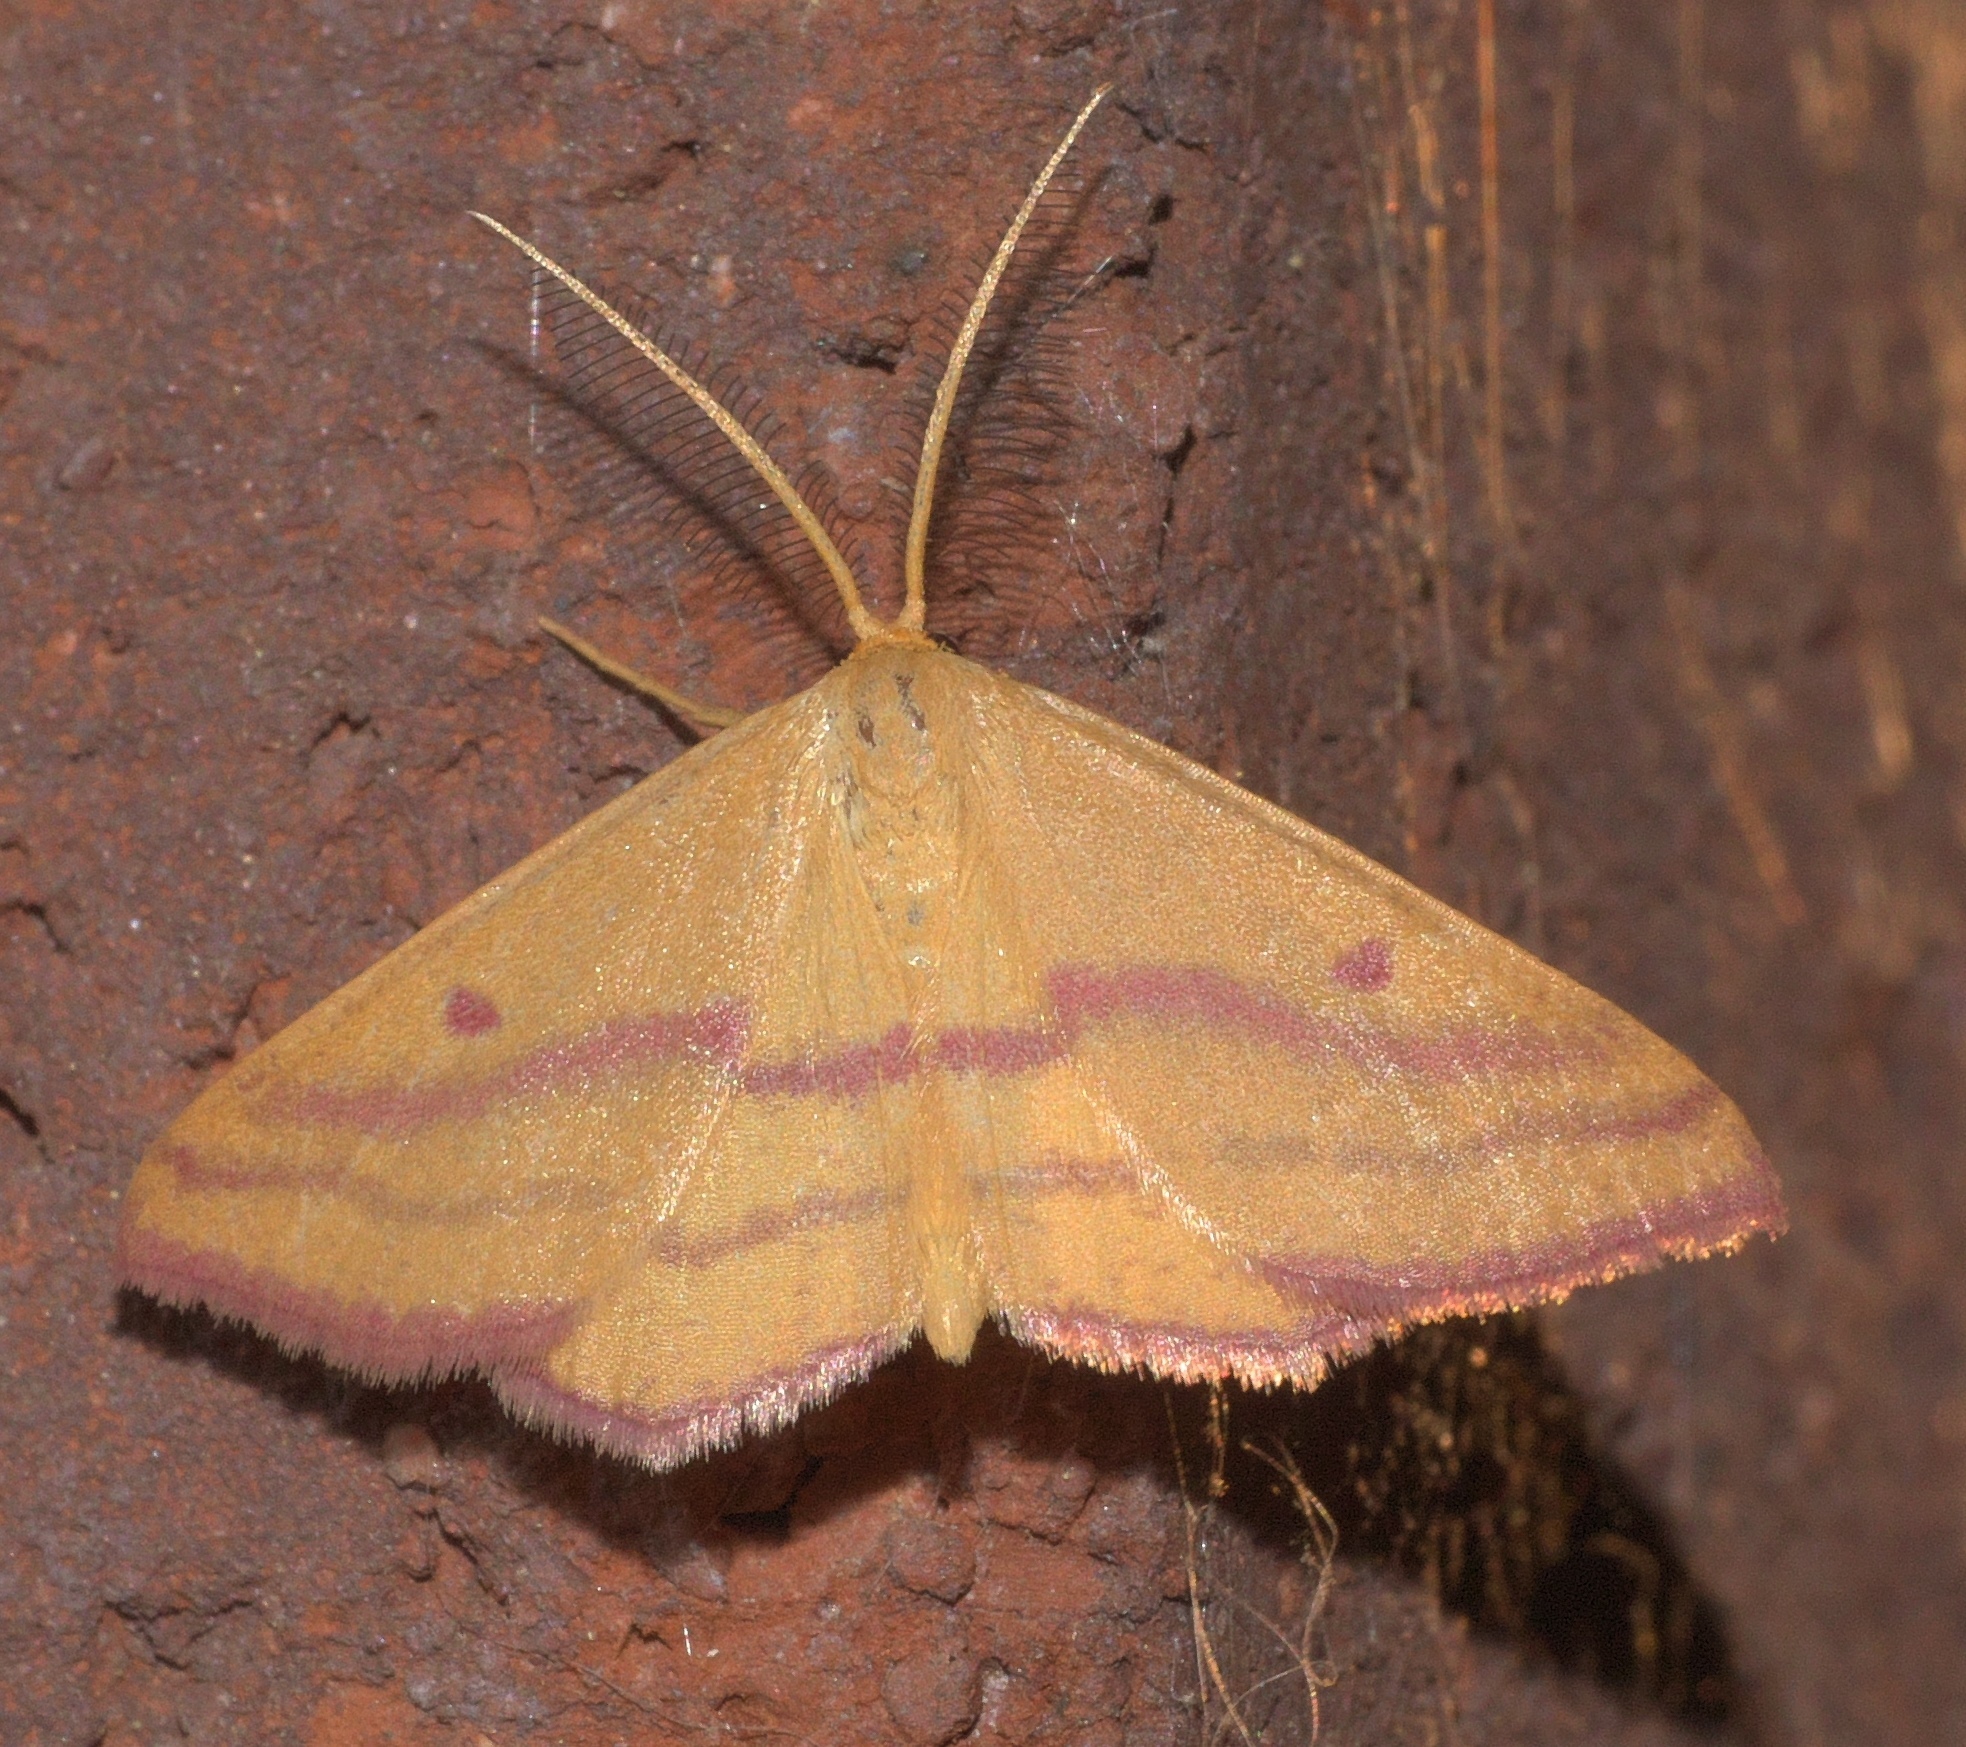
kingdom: Animalia
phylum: Arthropoda
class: Insecta
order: Lepidoptera
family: Geometridae
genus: Haematopis
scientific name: Haematopis grataria
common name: Chickweed geometer
